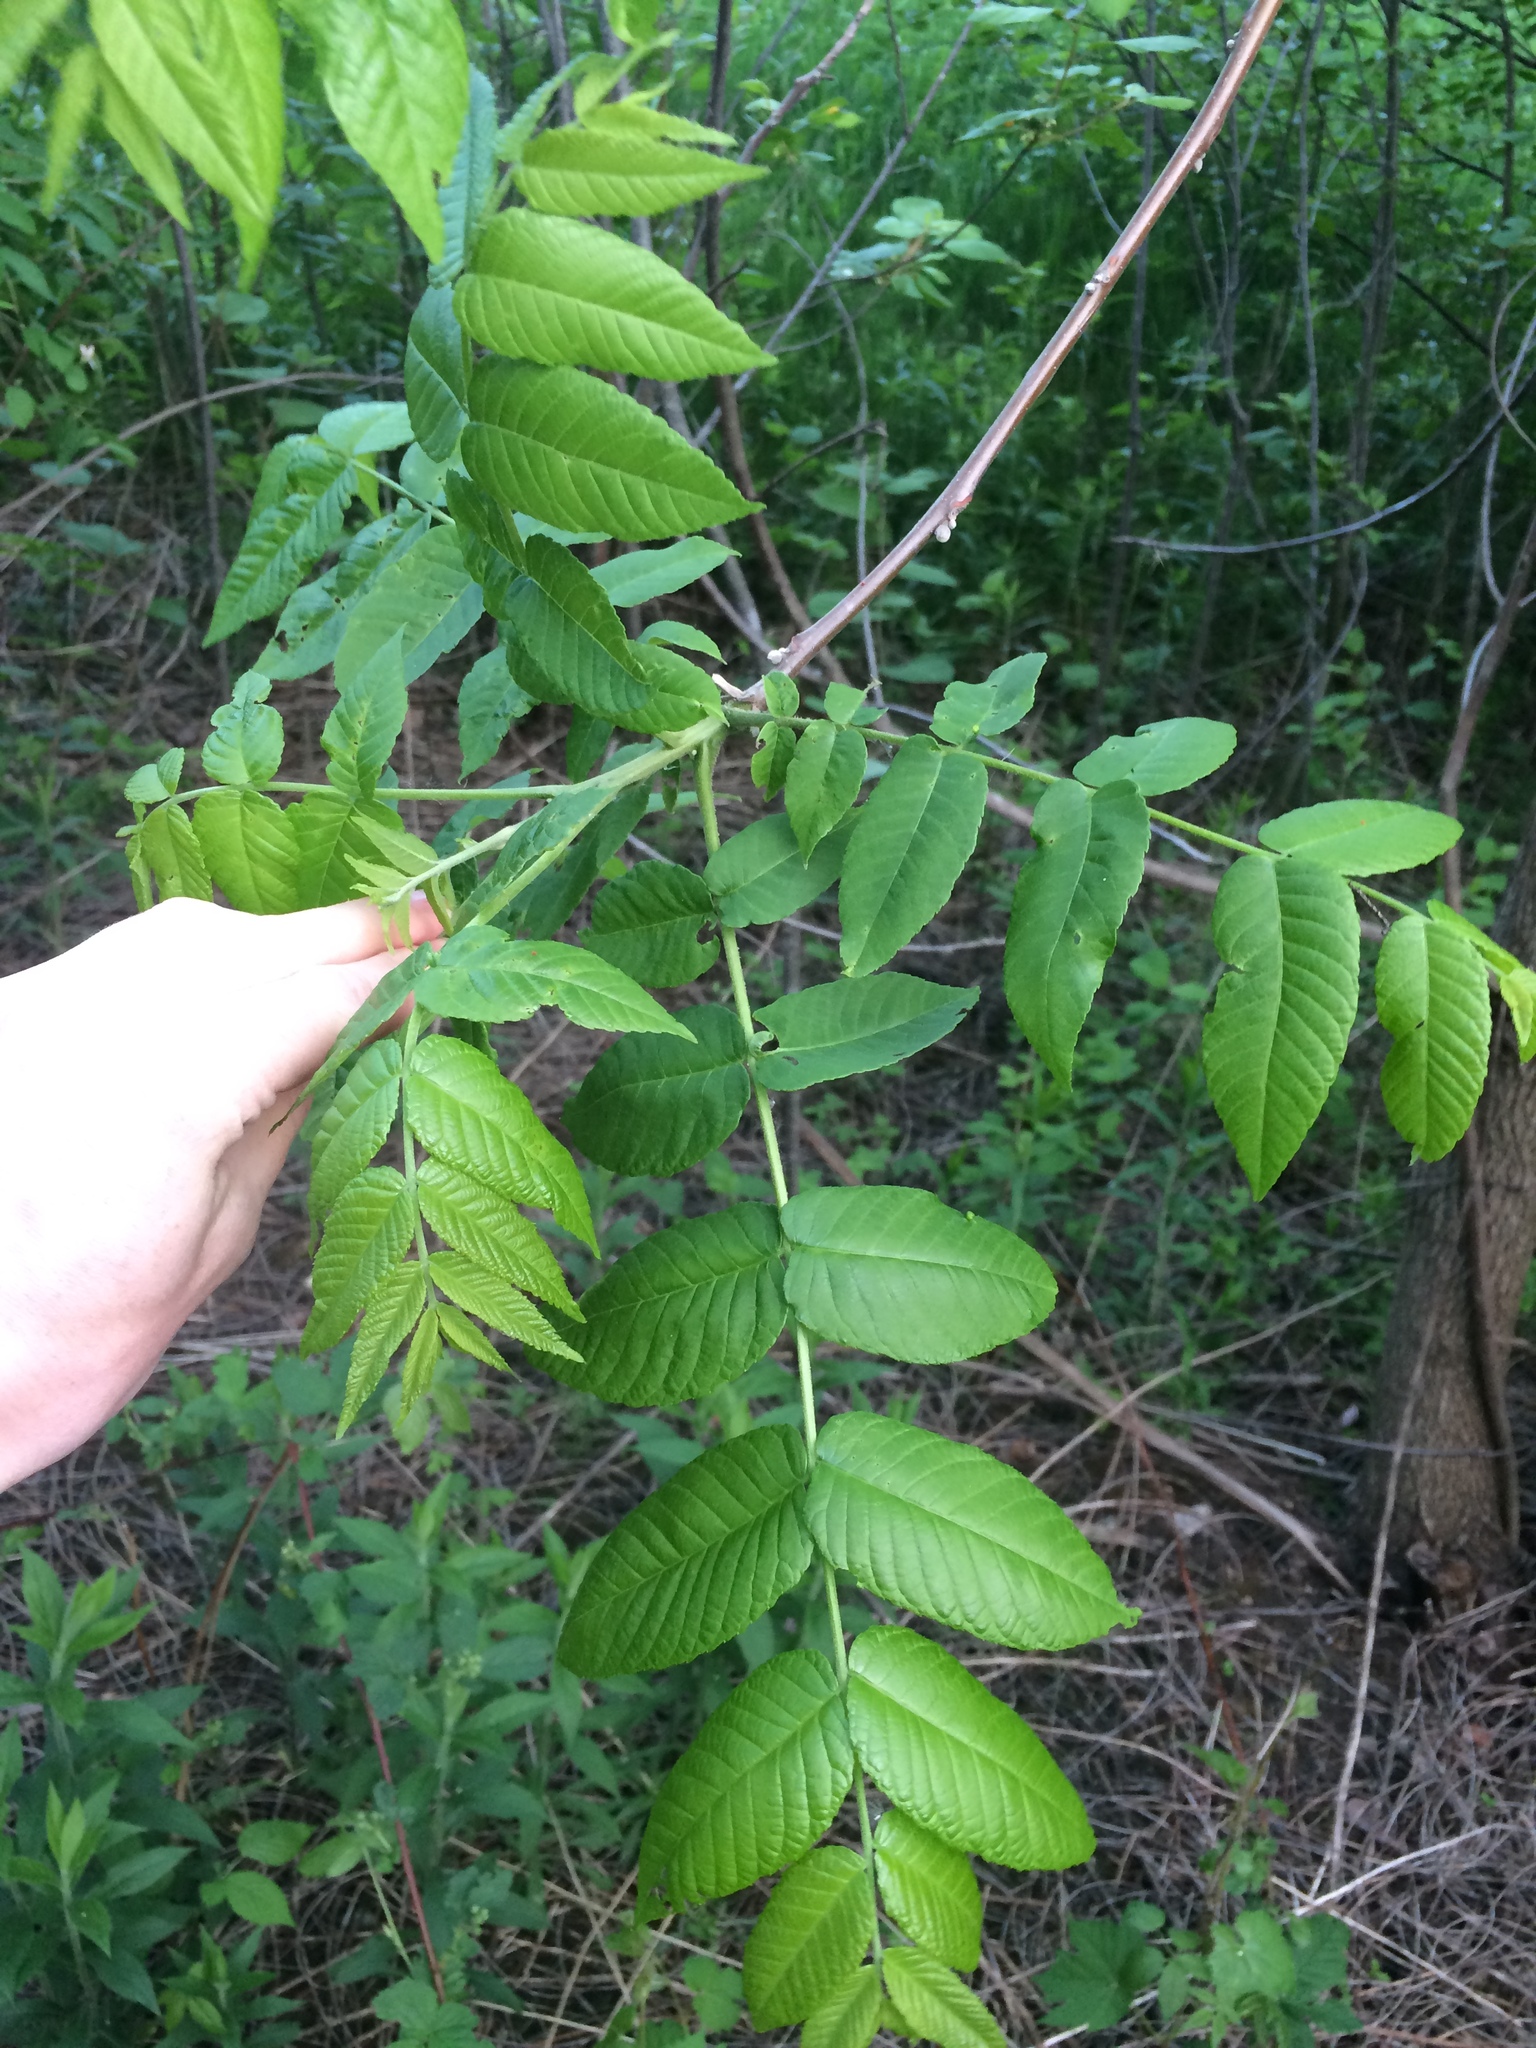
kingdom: Plantae
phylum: Tracheophyta
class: Magnoliopsida
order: Fagales
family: Juglandaceae
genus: Juglans
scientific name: Juglans nigra
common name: Black walnut
